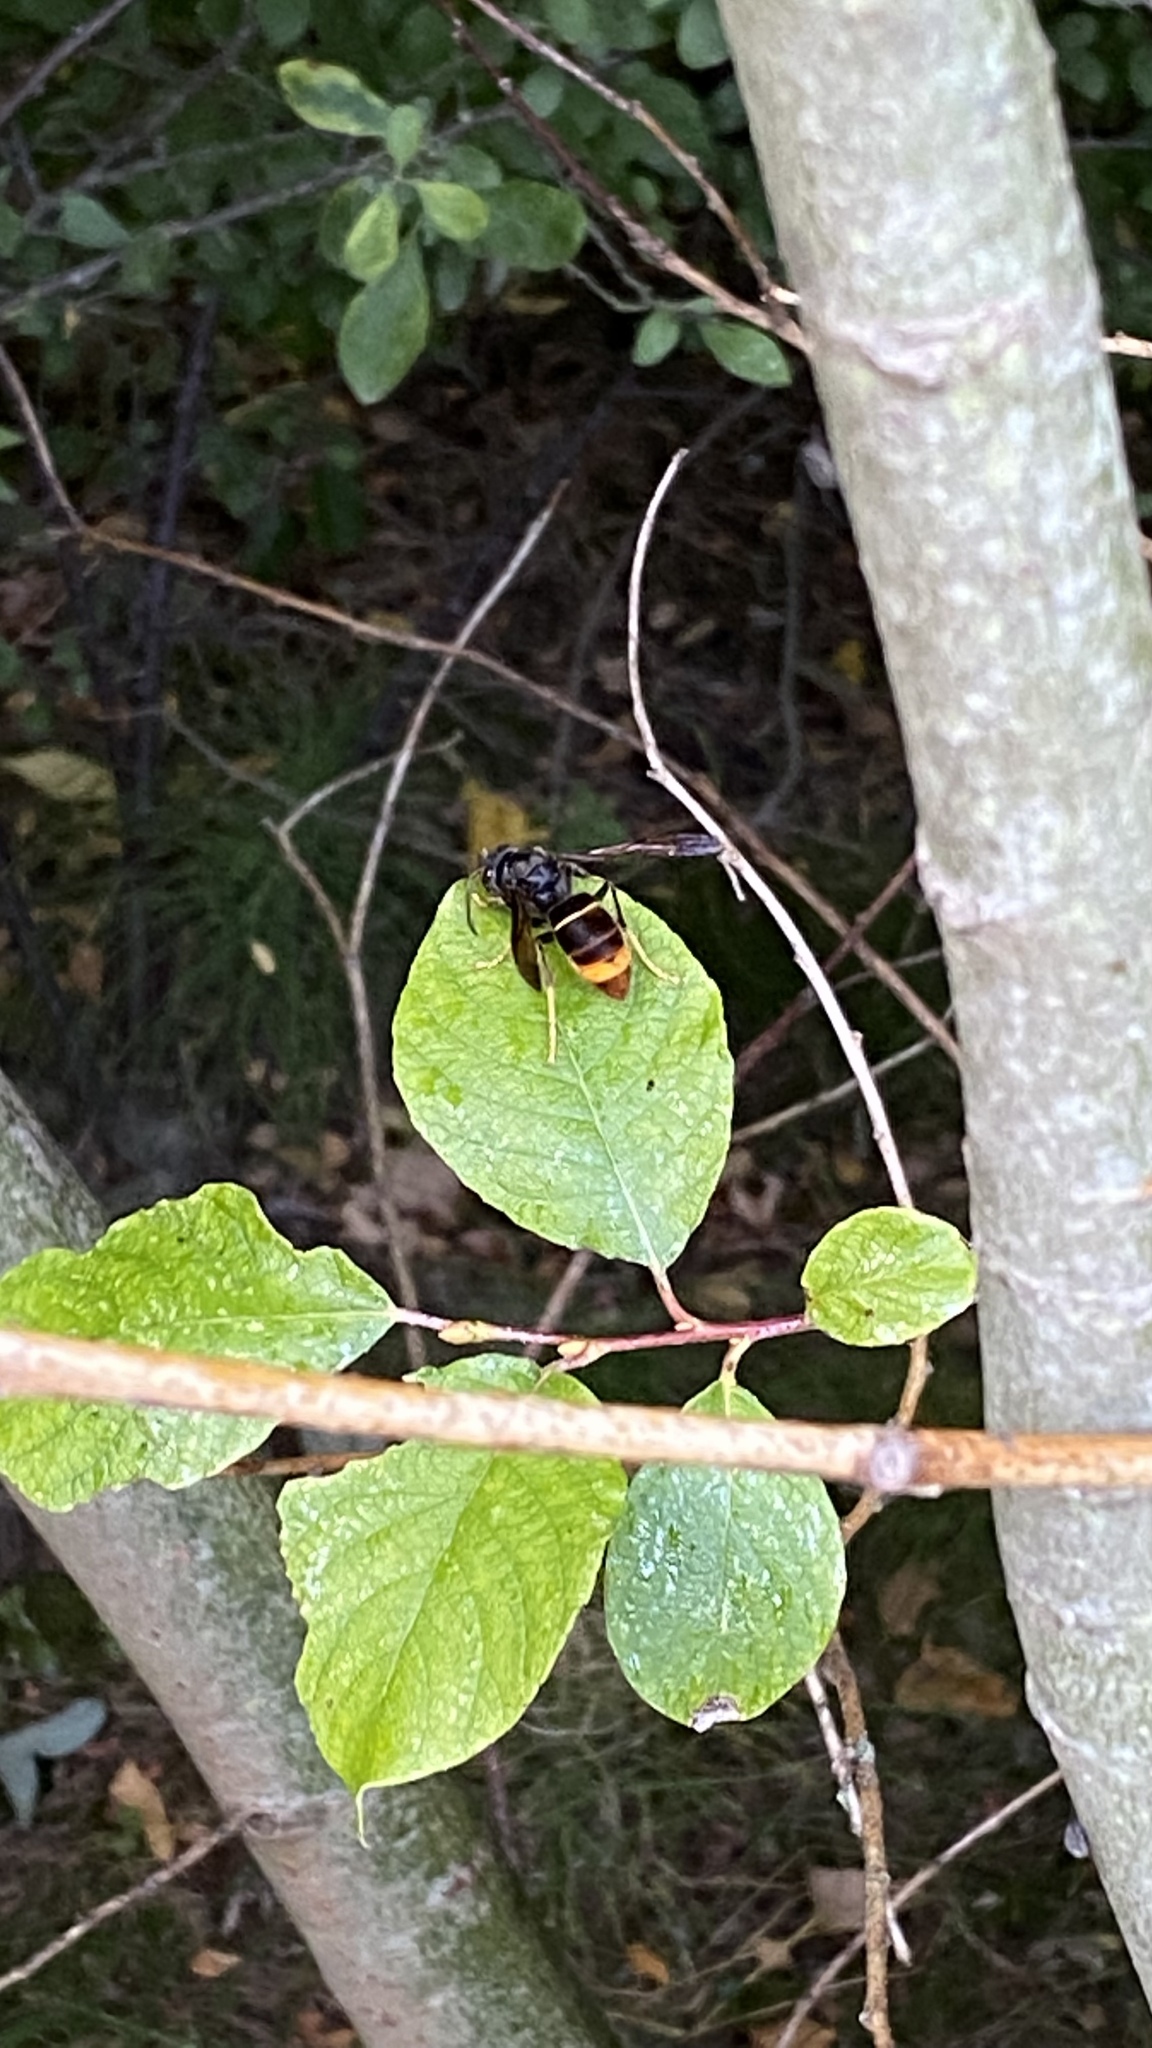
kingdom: Animalia
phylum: Arthropoda
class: Insecta
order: Hymenoptera
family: Vespidae
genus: Vespa
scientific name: Vespa velutina
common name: Asian hornet
